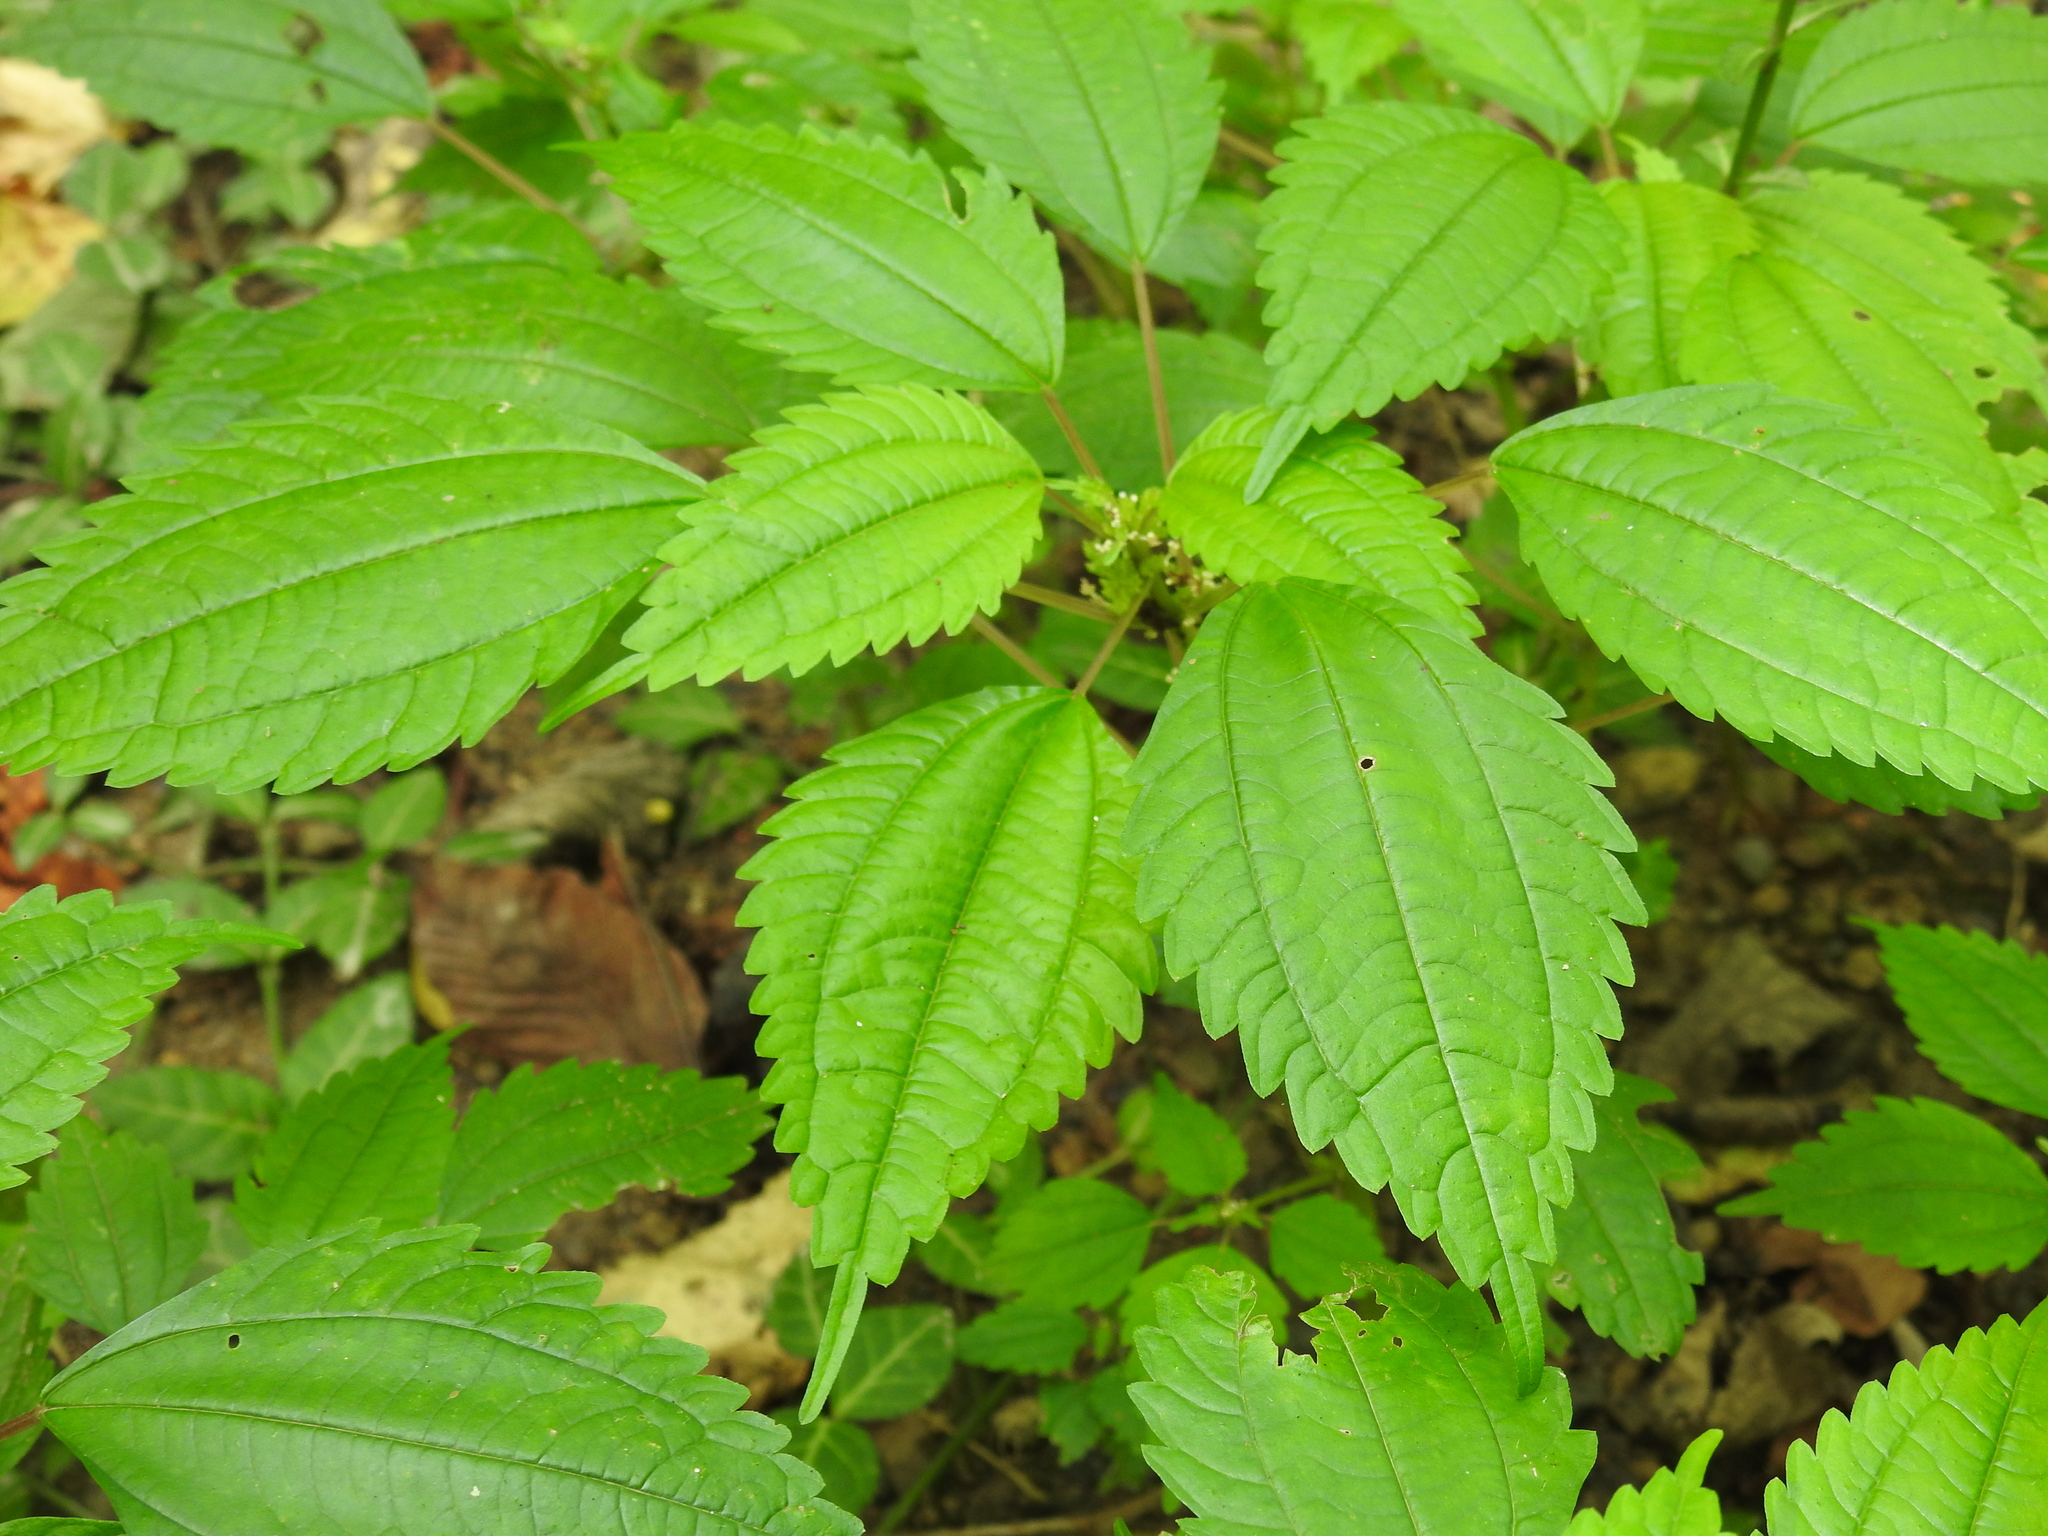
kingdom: Plantae
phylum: Tracheophyta
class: Magnoliopsida
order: Rosales
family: Urticaceae
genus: Pilea
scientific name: Pilea pumila
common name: Clearweed
